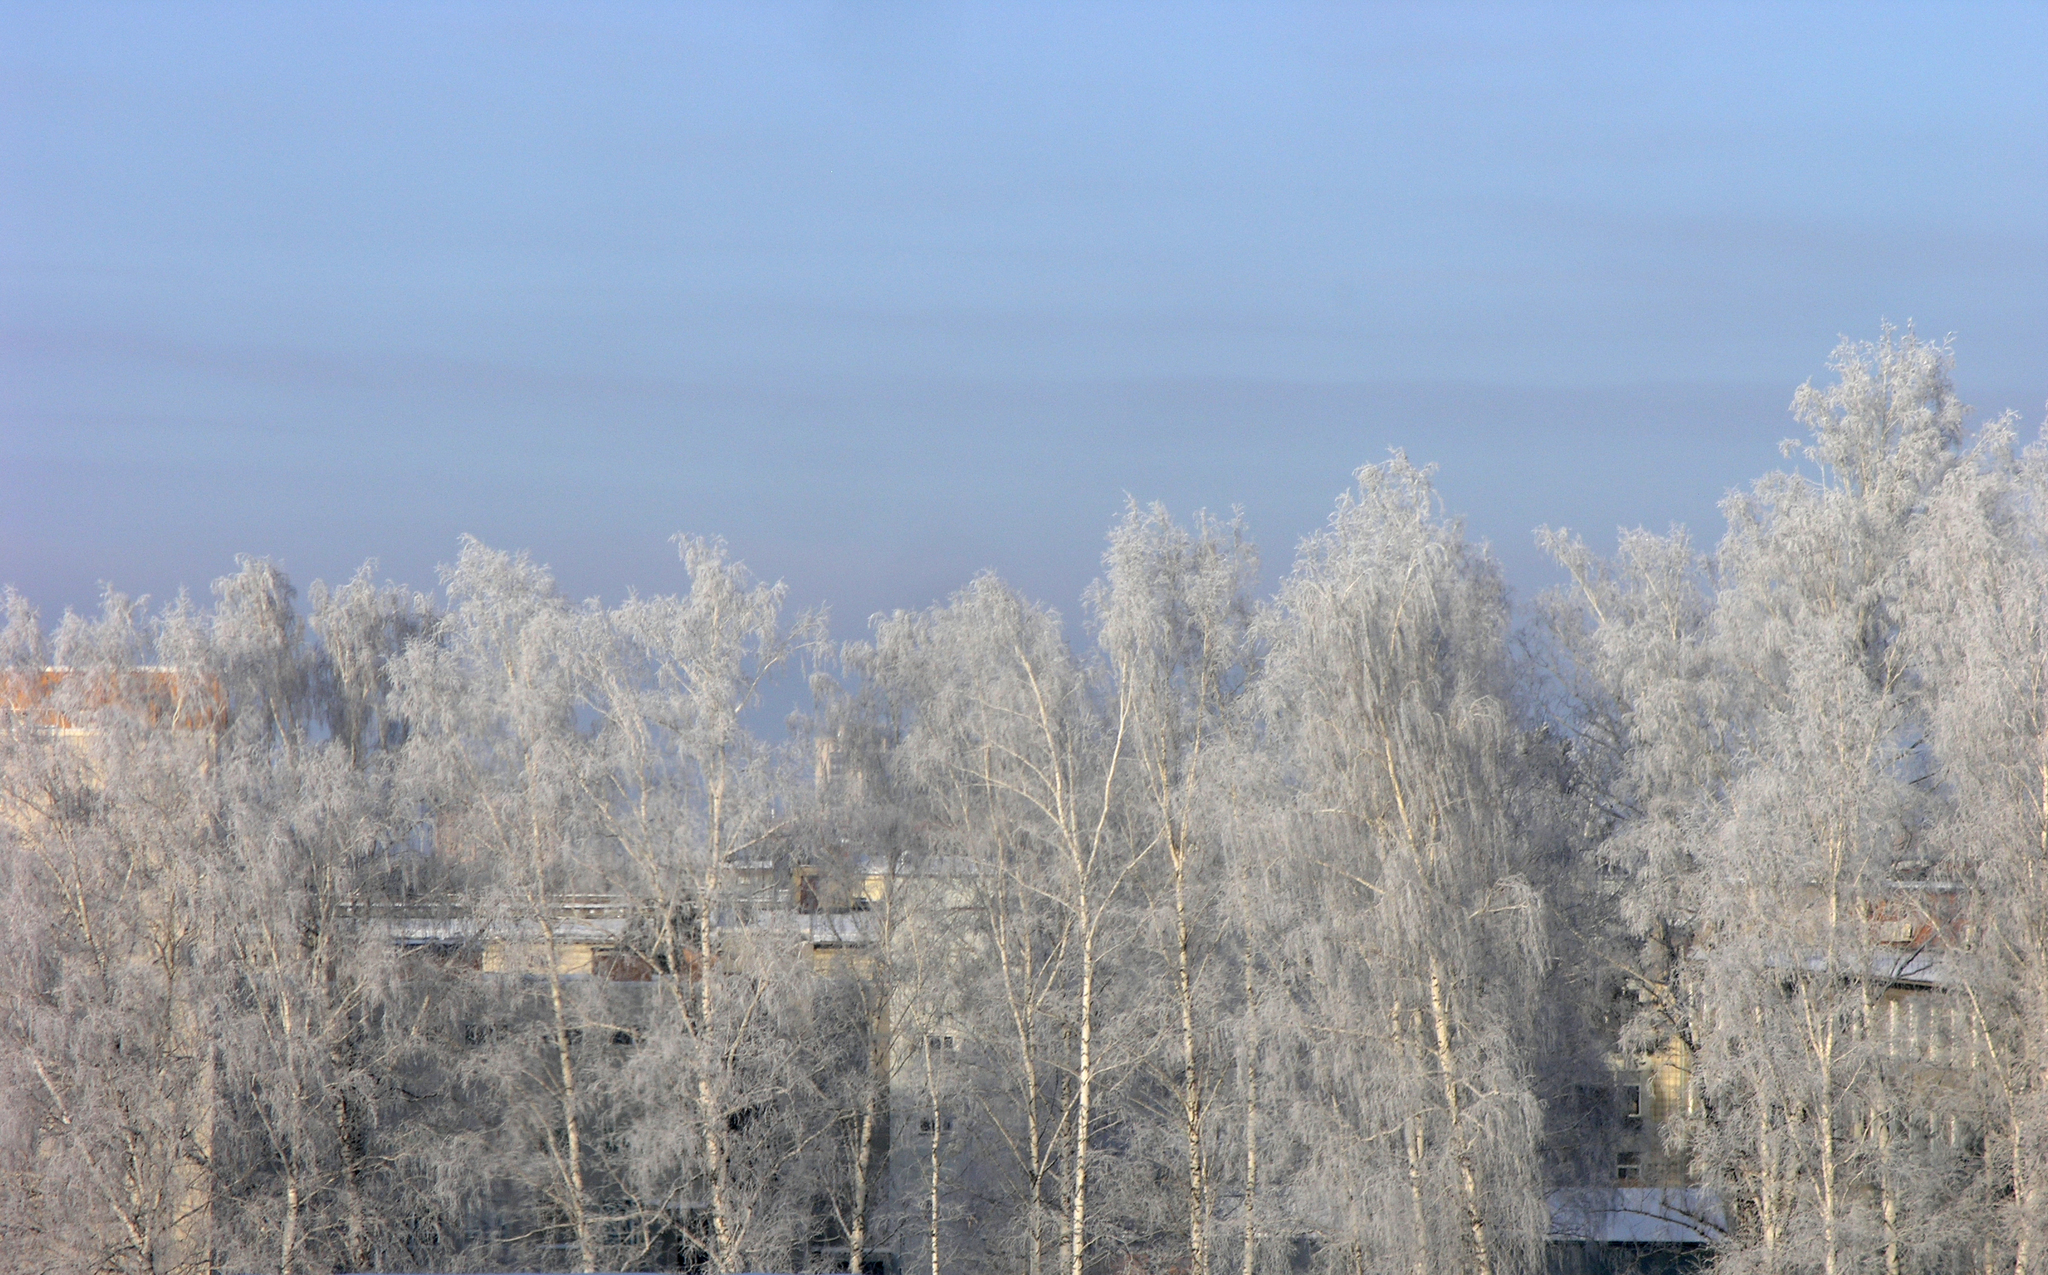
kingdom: Plantae
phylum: Tracheophyta
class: Magnoliopsida
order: Fagales
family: Betulaceae
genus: Betula
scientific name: Betula pendula
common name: Silver birch
